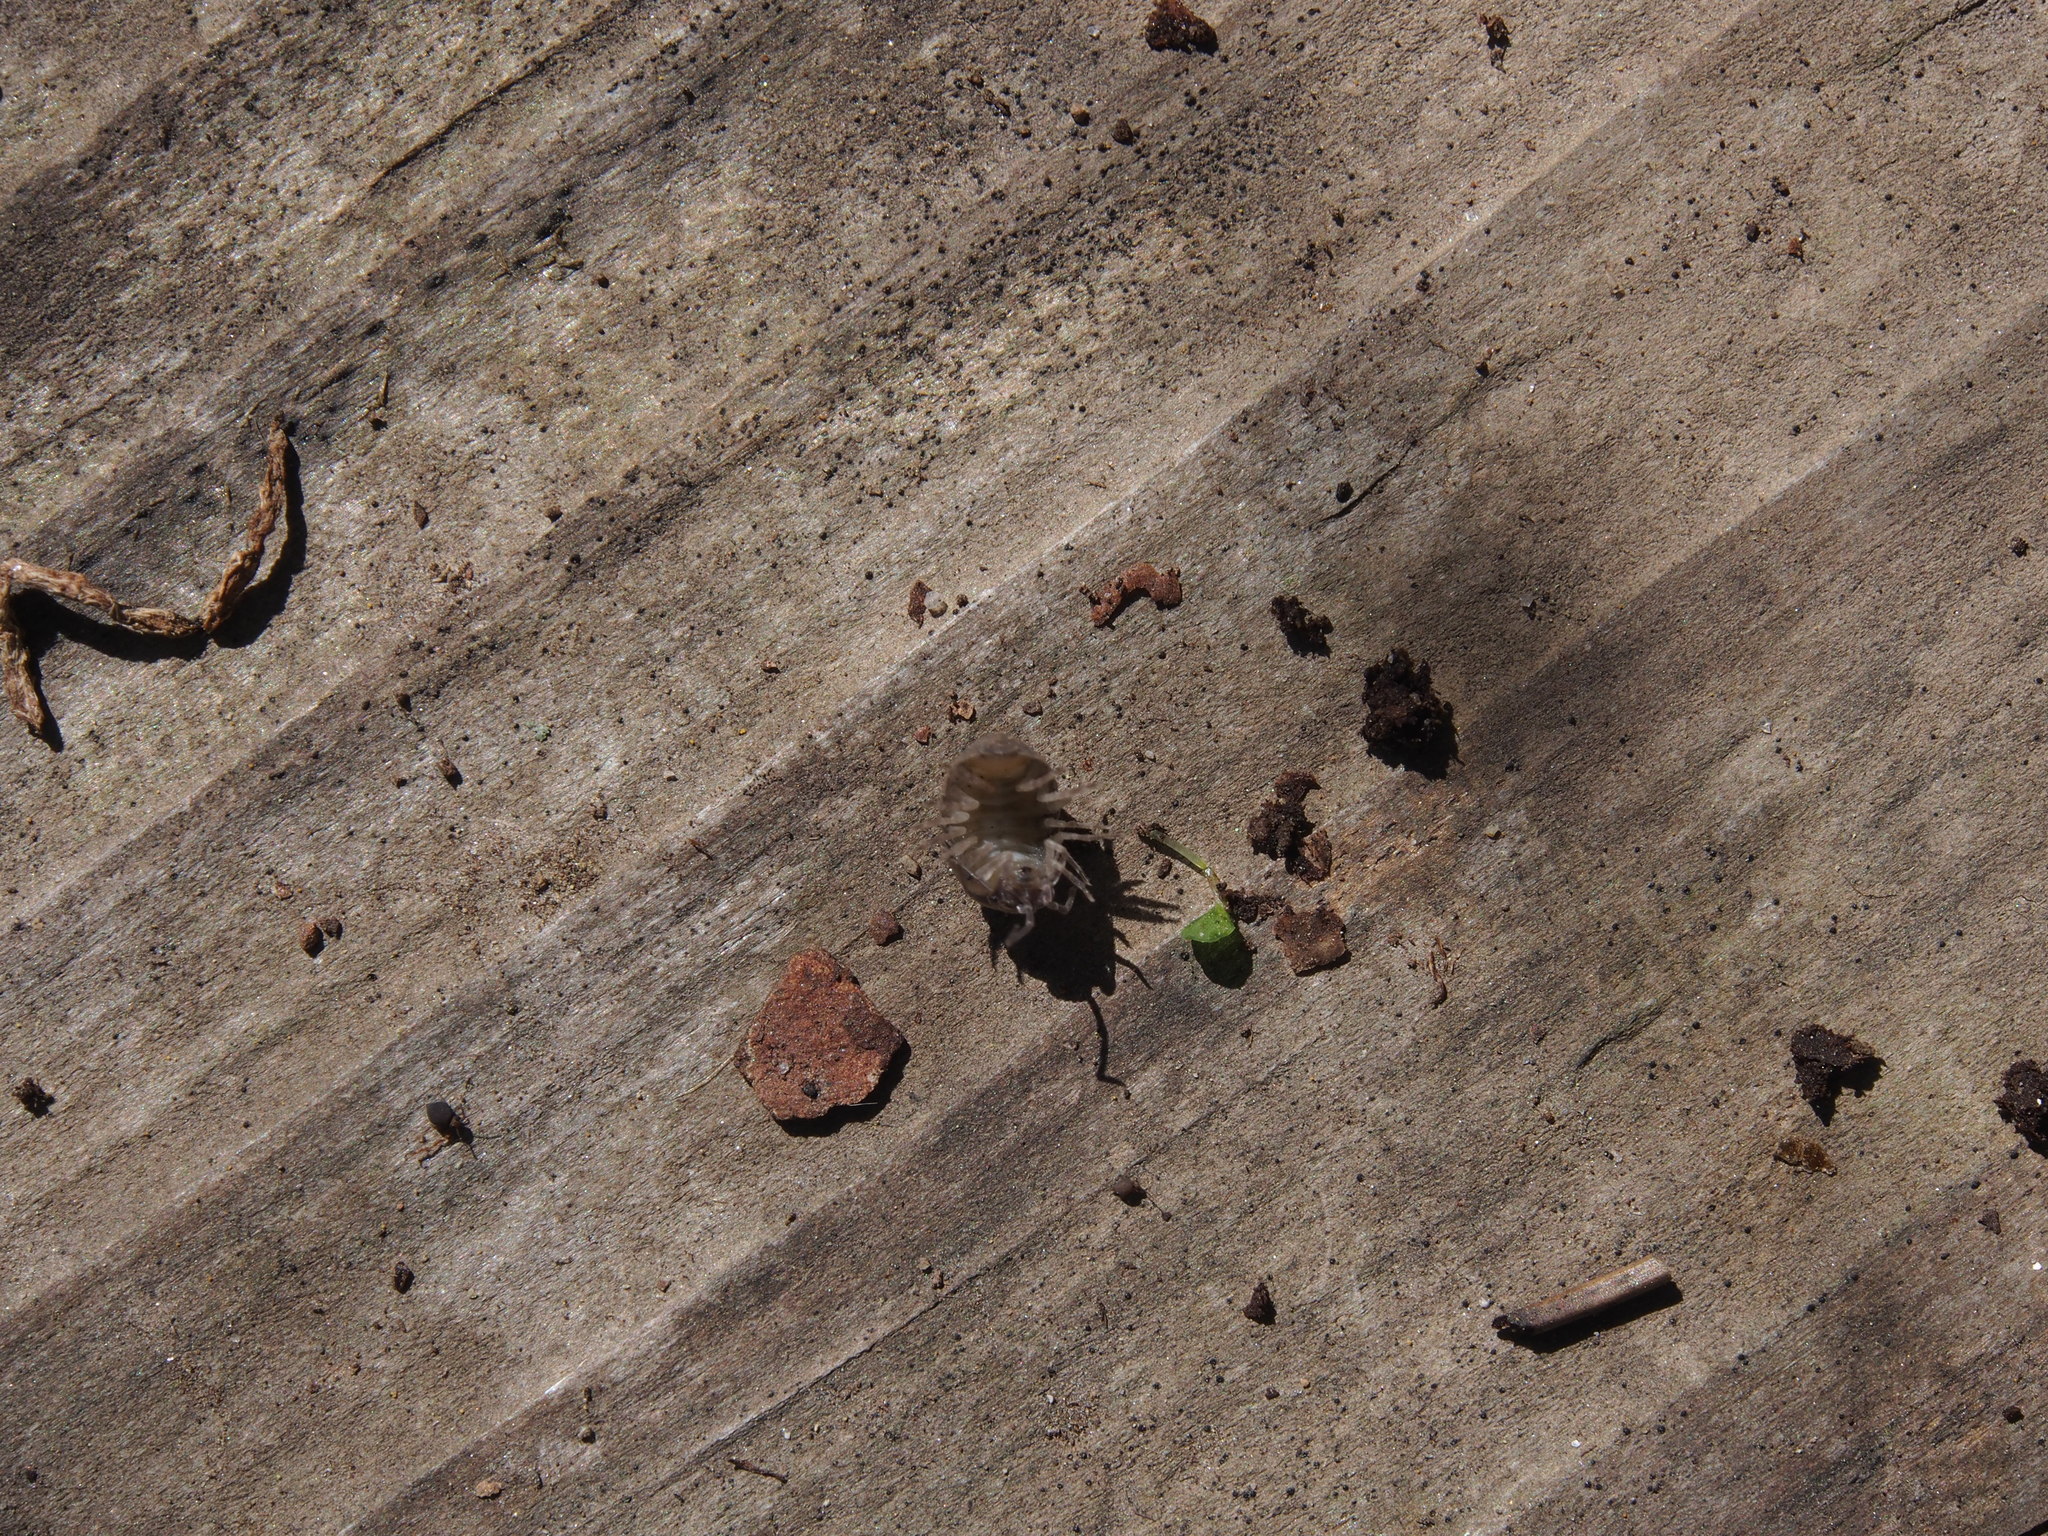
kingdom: Animalia
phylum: Arthropoda
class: Malacostraca
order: Isopoda
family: Armadillidiidae
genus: Armadillidium
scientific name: Armadillidium nasatum
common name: Isopod
